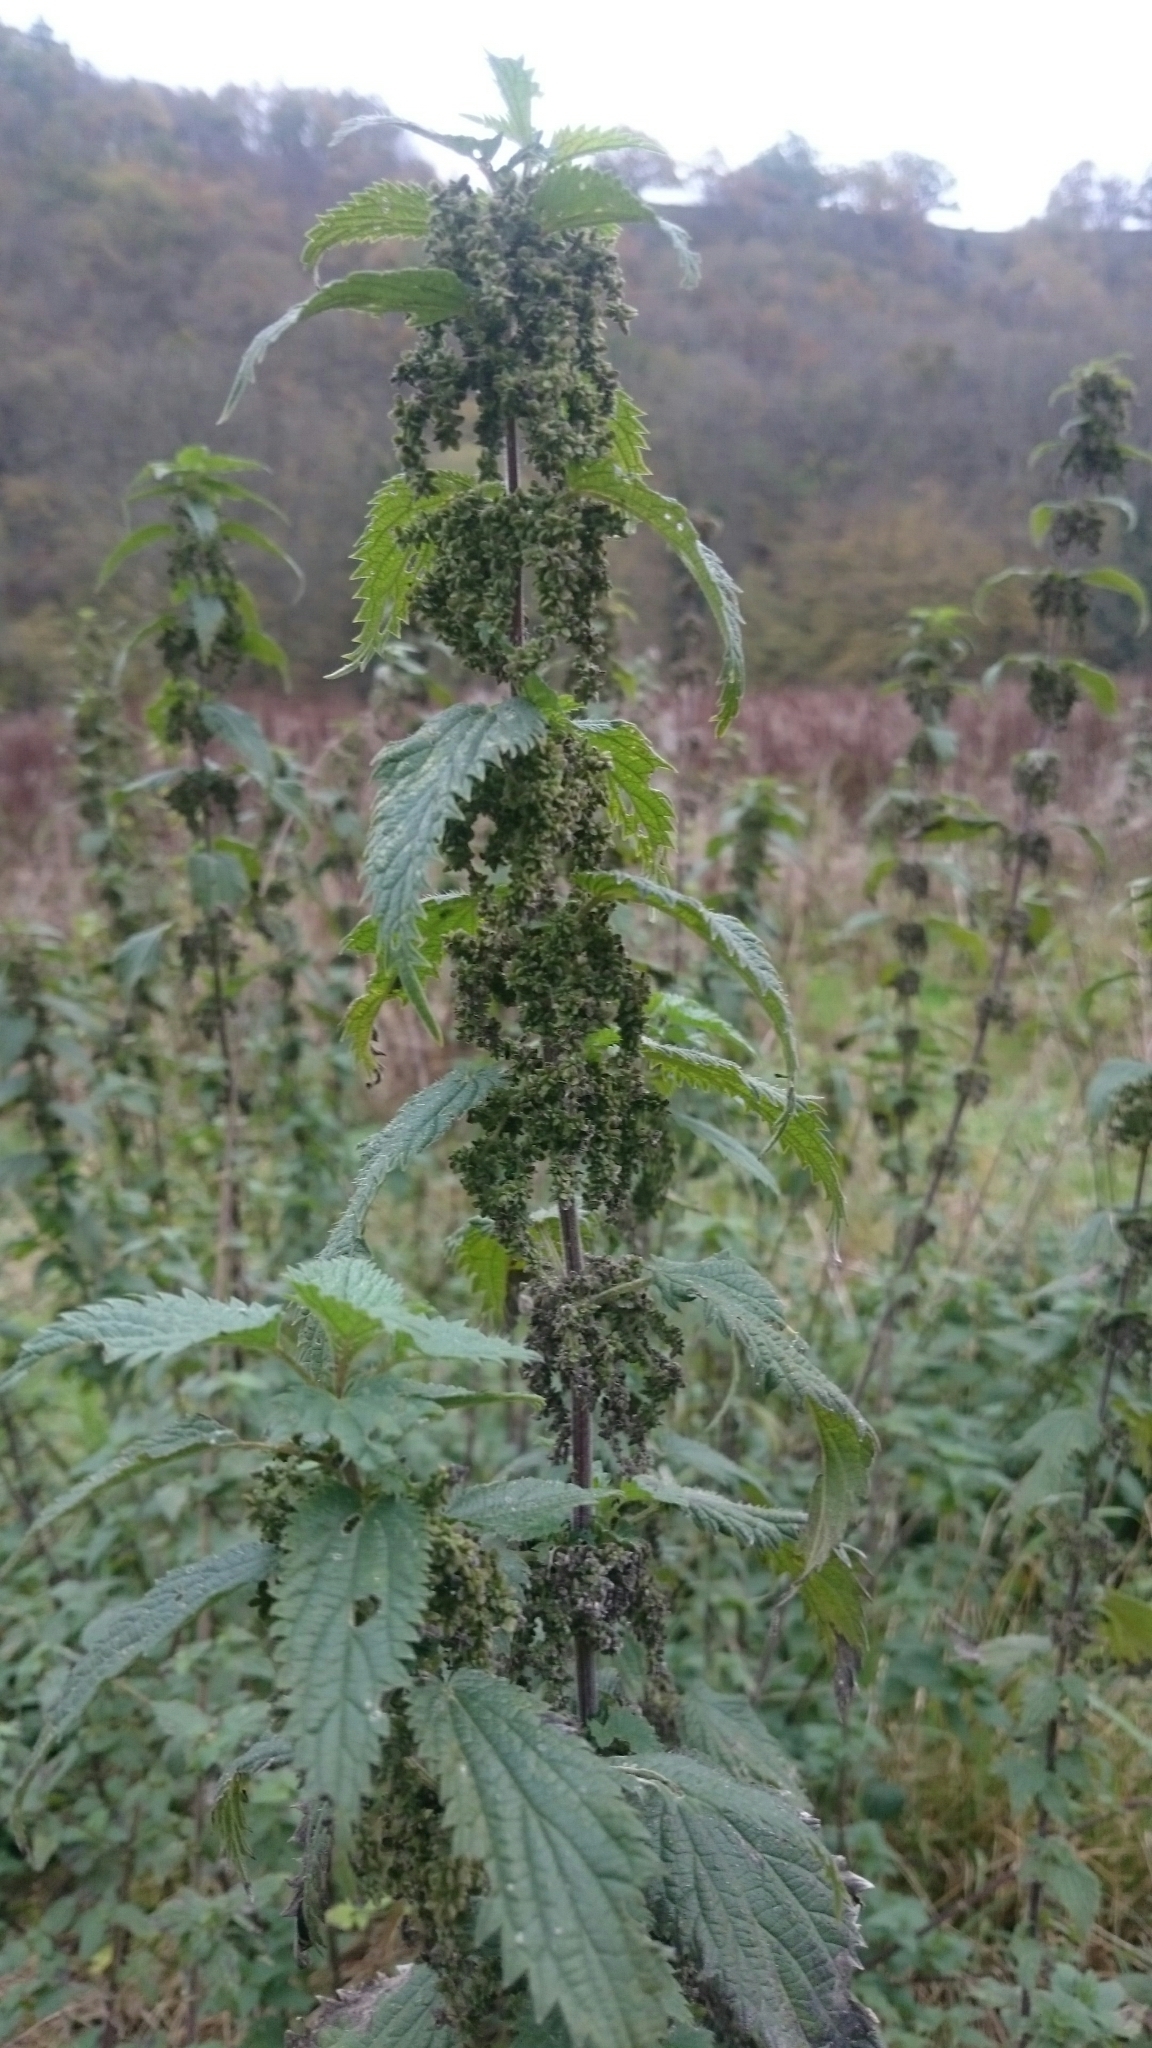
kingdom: Plantae
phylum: Tracheophyta
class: Magnoliopsida
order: Rosales
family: Urticaceae
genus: Urtica
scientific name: Urtica dioica
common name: Common nettle
